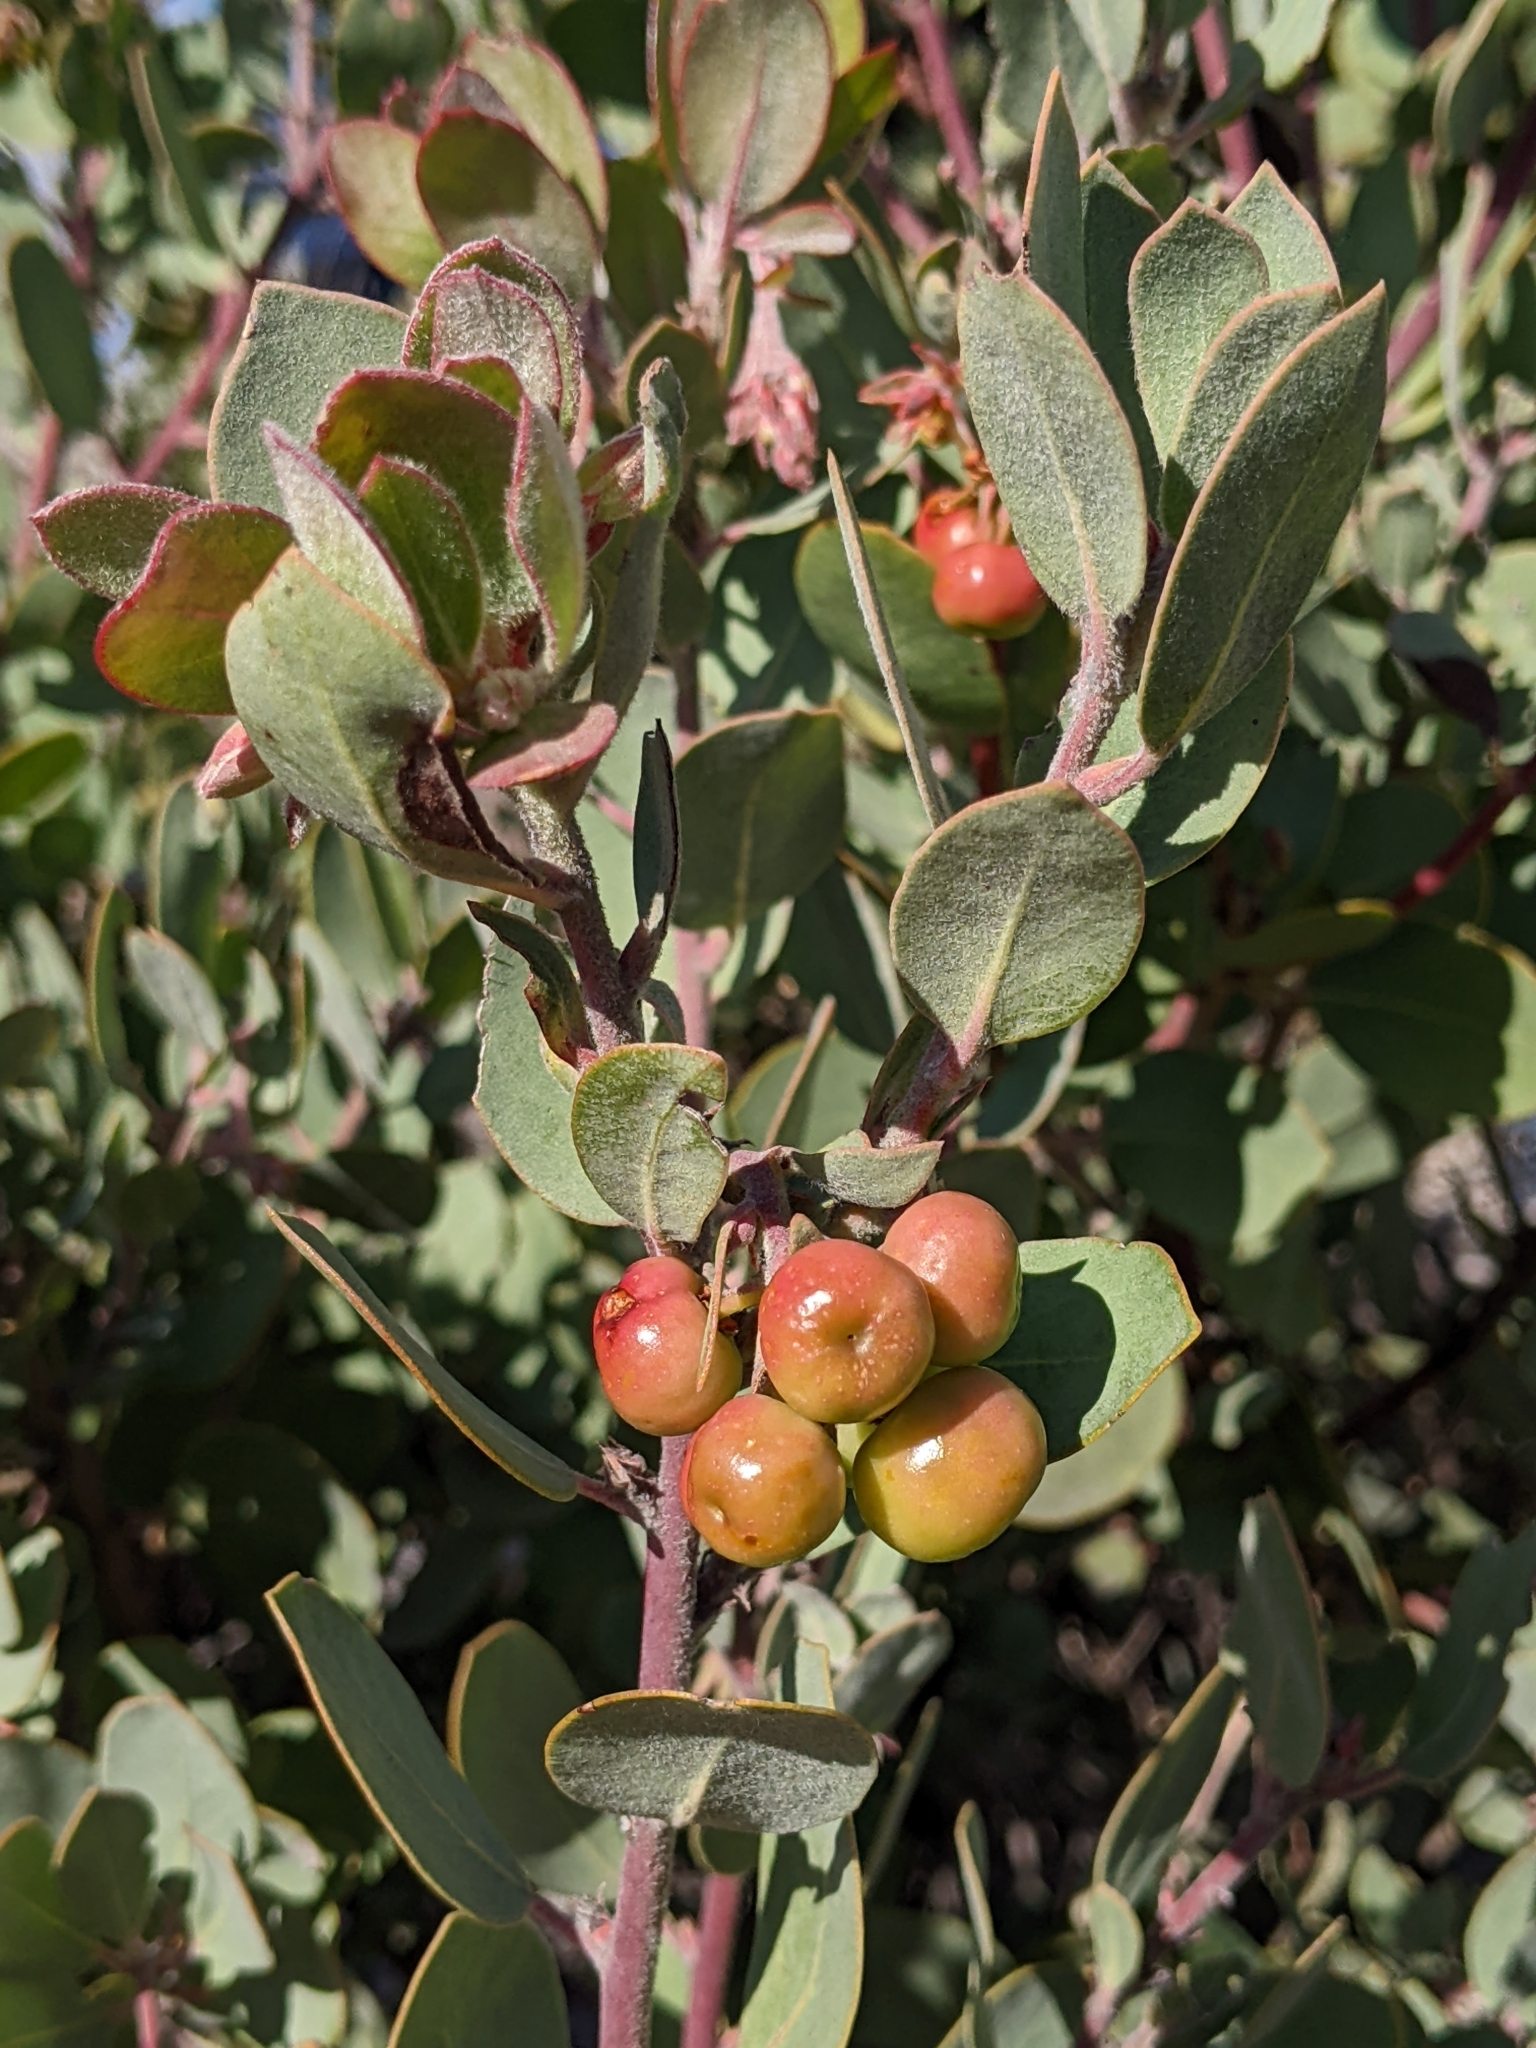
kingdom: Plantae
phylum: Tracheophyta
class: Magnoliopsida
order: Ericales
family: Ericaceae
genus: Arctostaphylos
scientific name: Arctostaphylos silvicola
